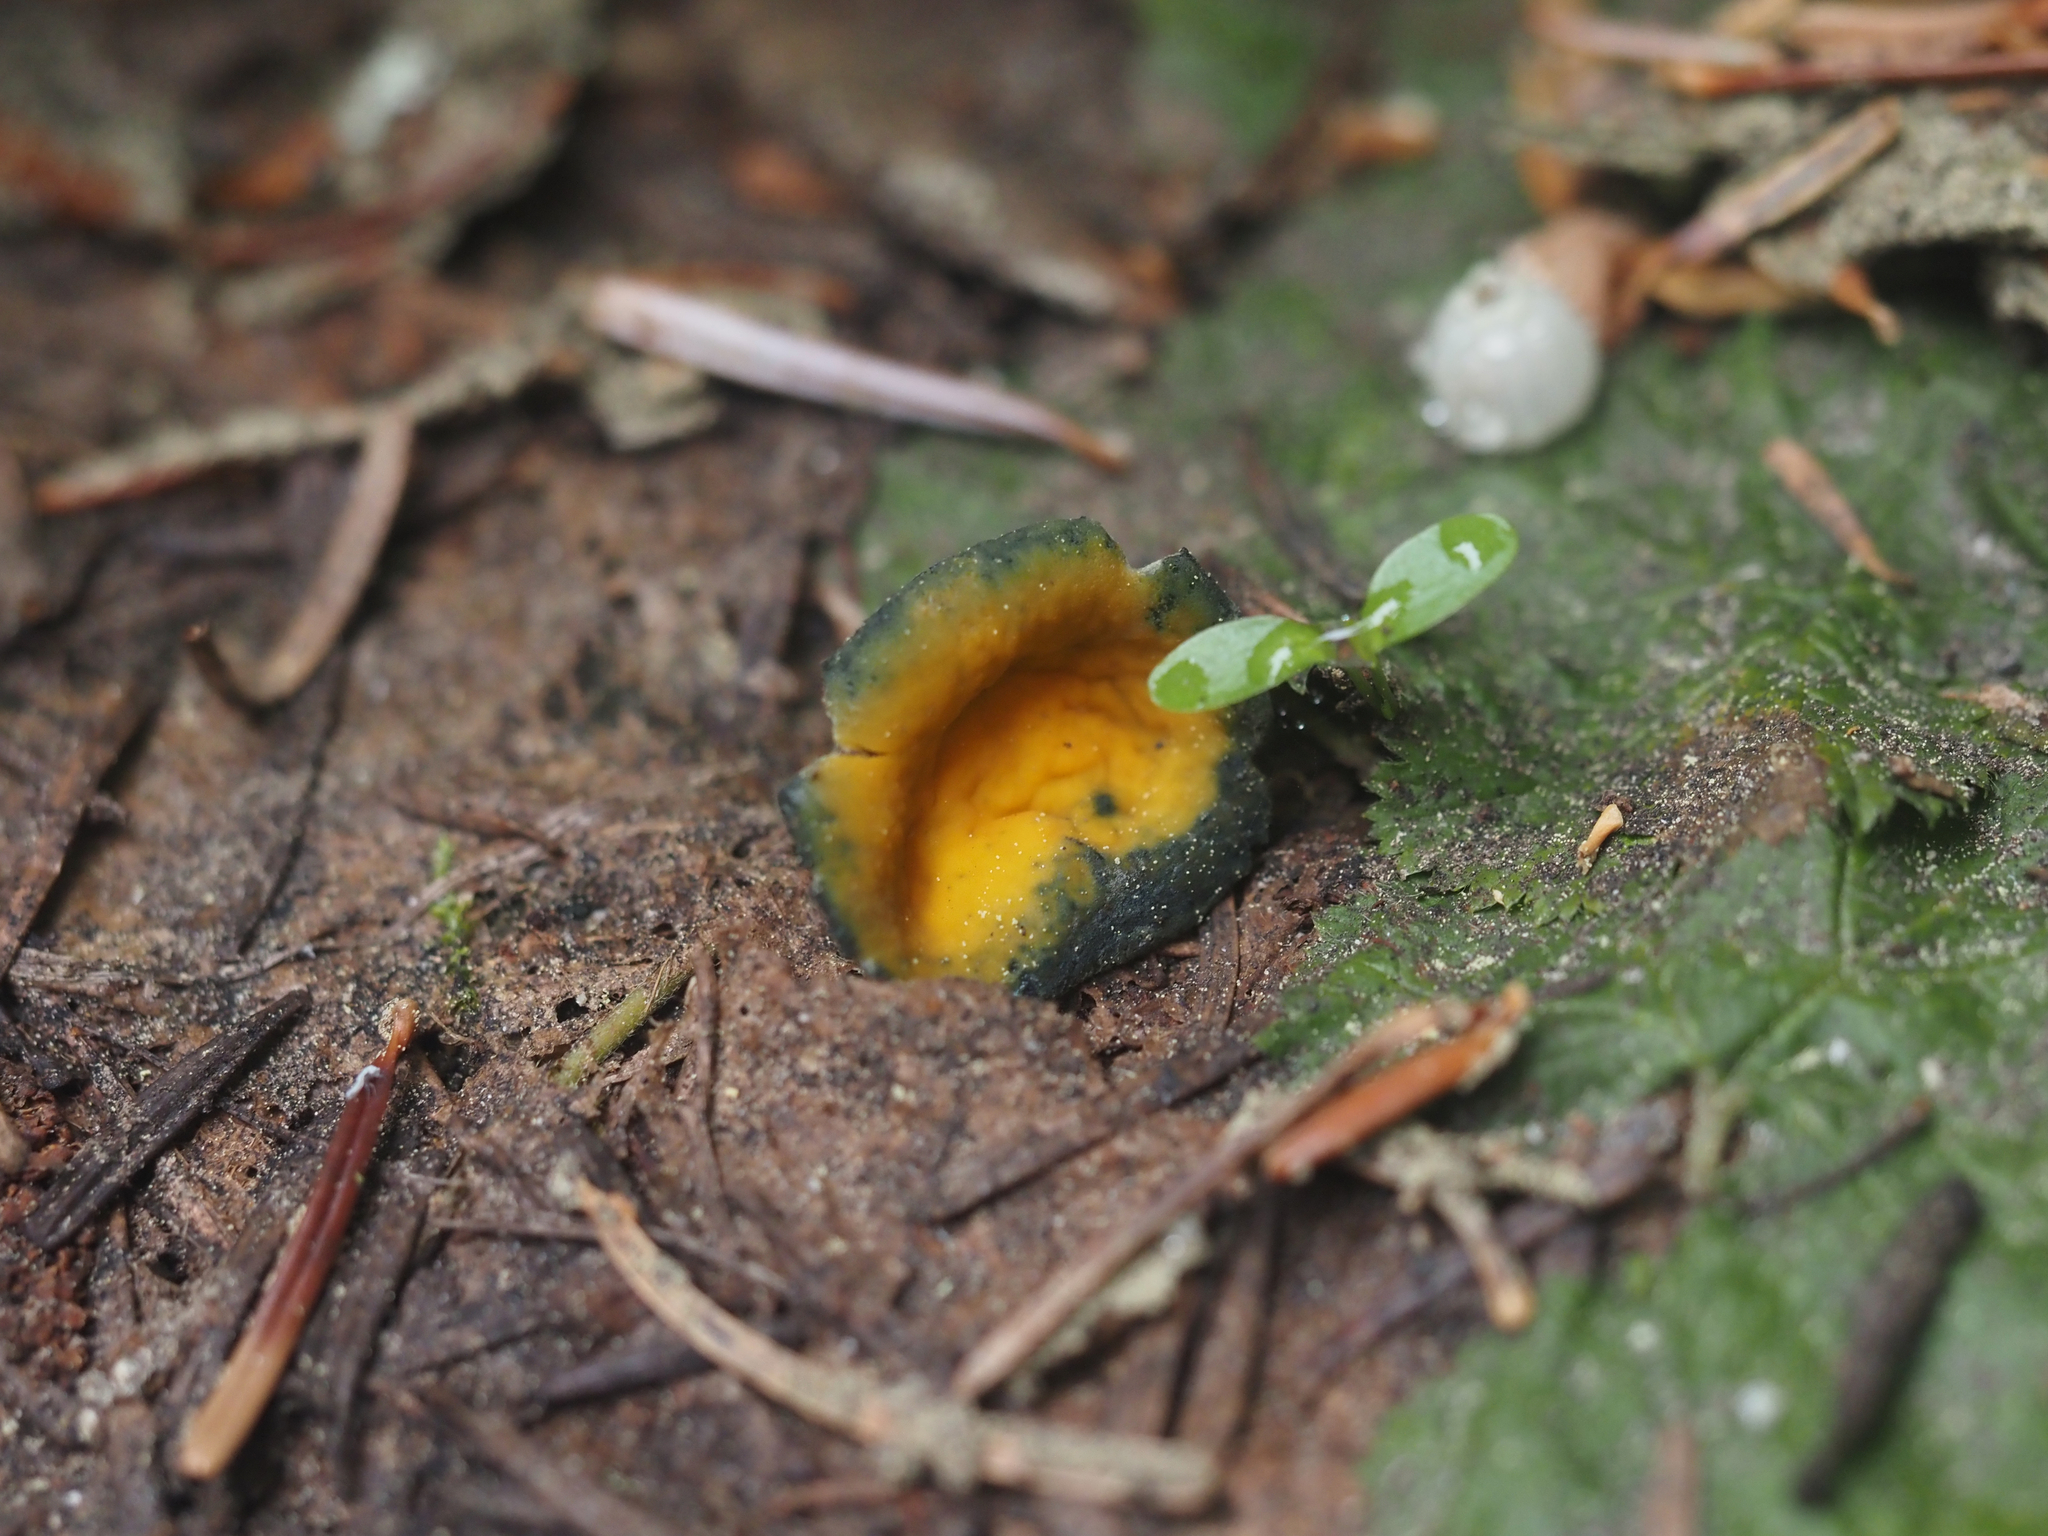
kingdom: Fungi
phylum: Ascomycota
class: Pezizomycetes
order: Pezizales
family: Caloscyphaceae
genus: Caloscypha
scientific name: Caloscypha fulgens
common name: Golden cup
